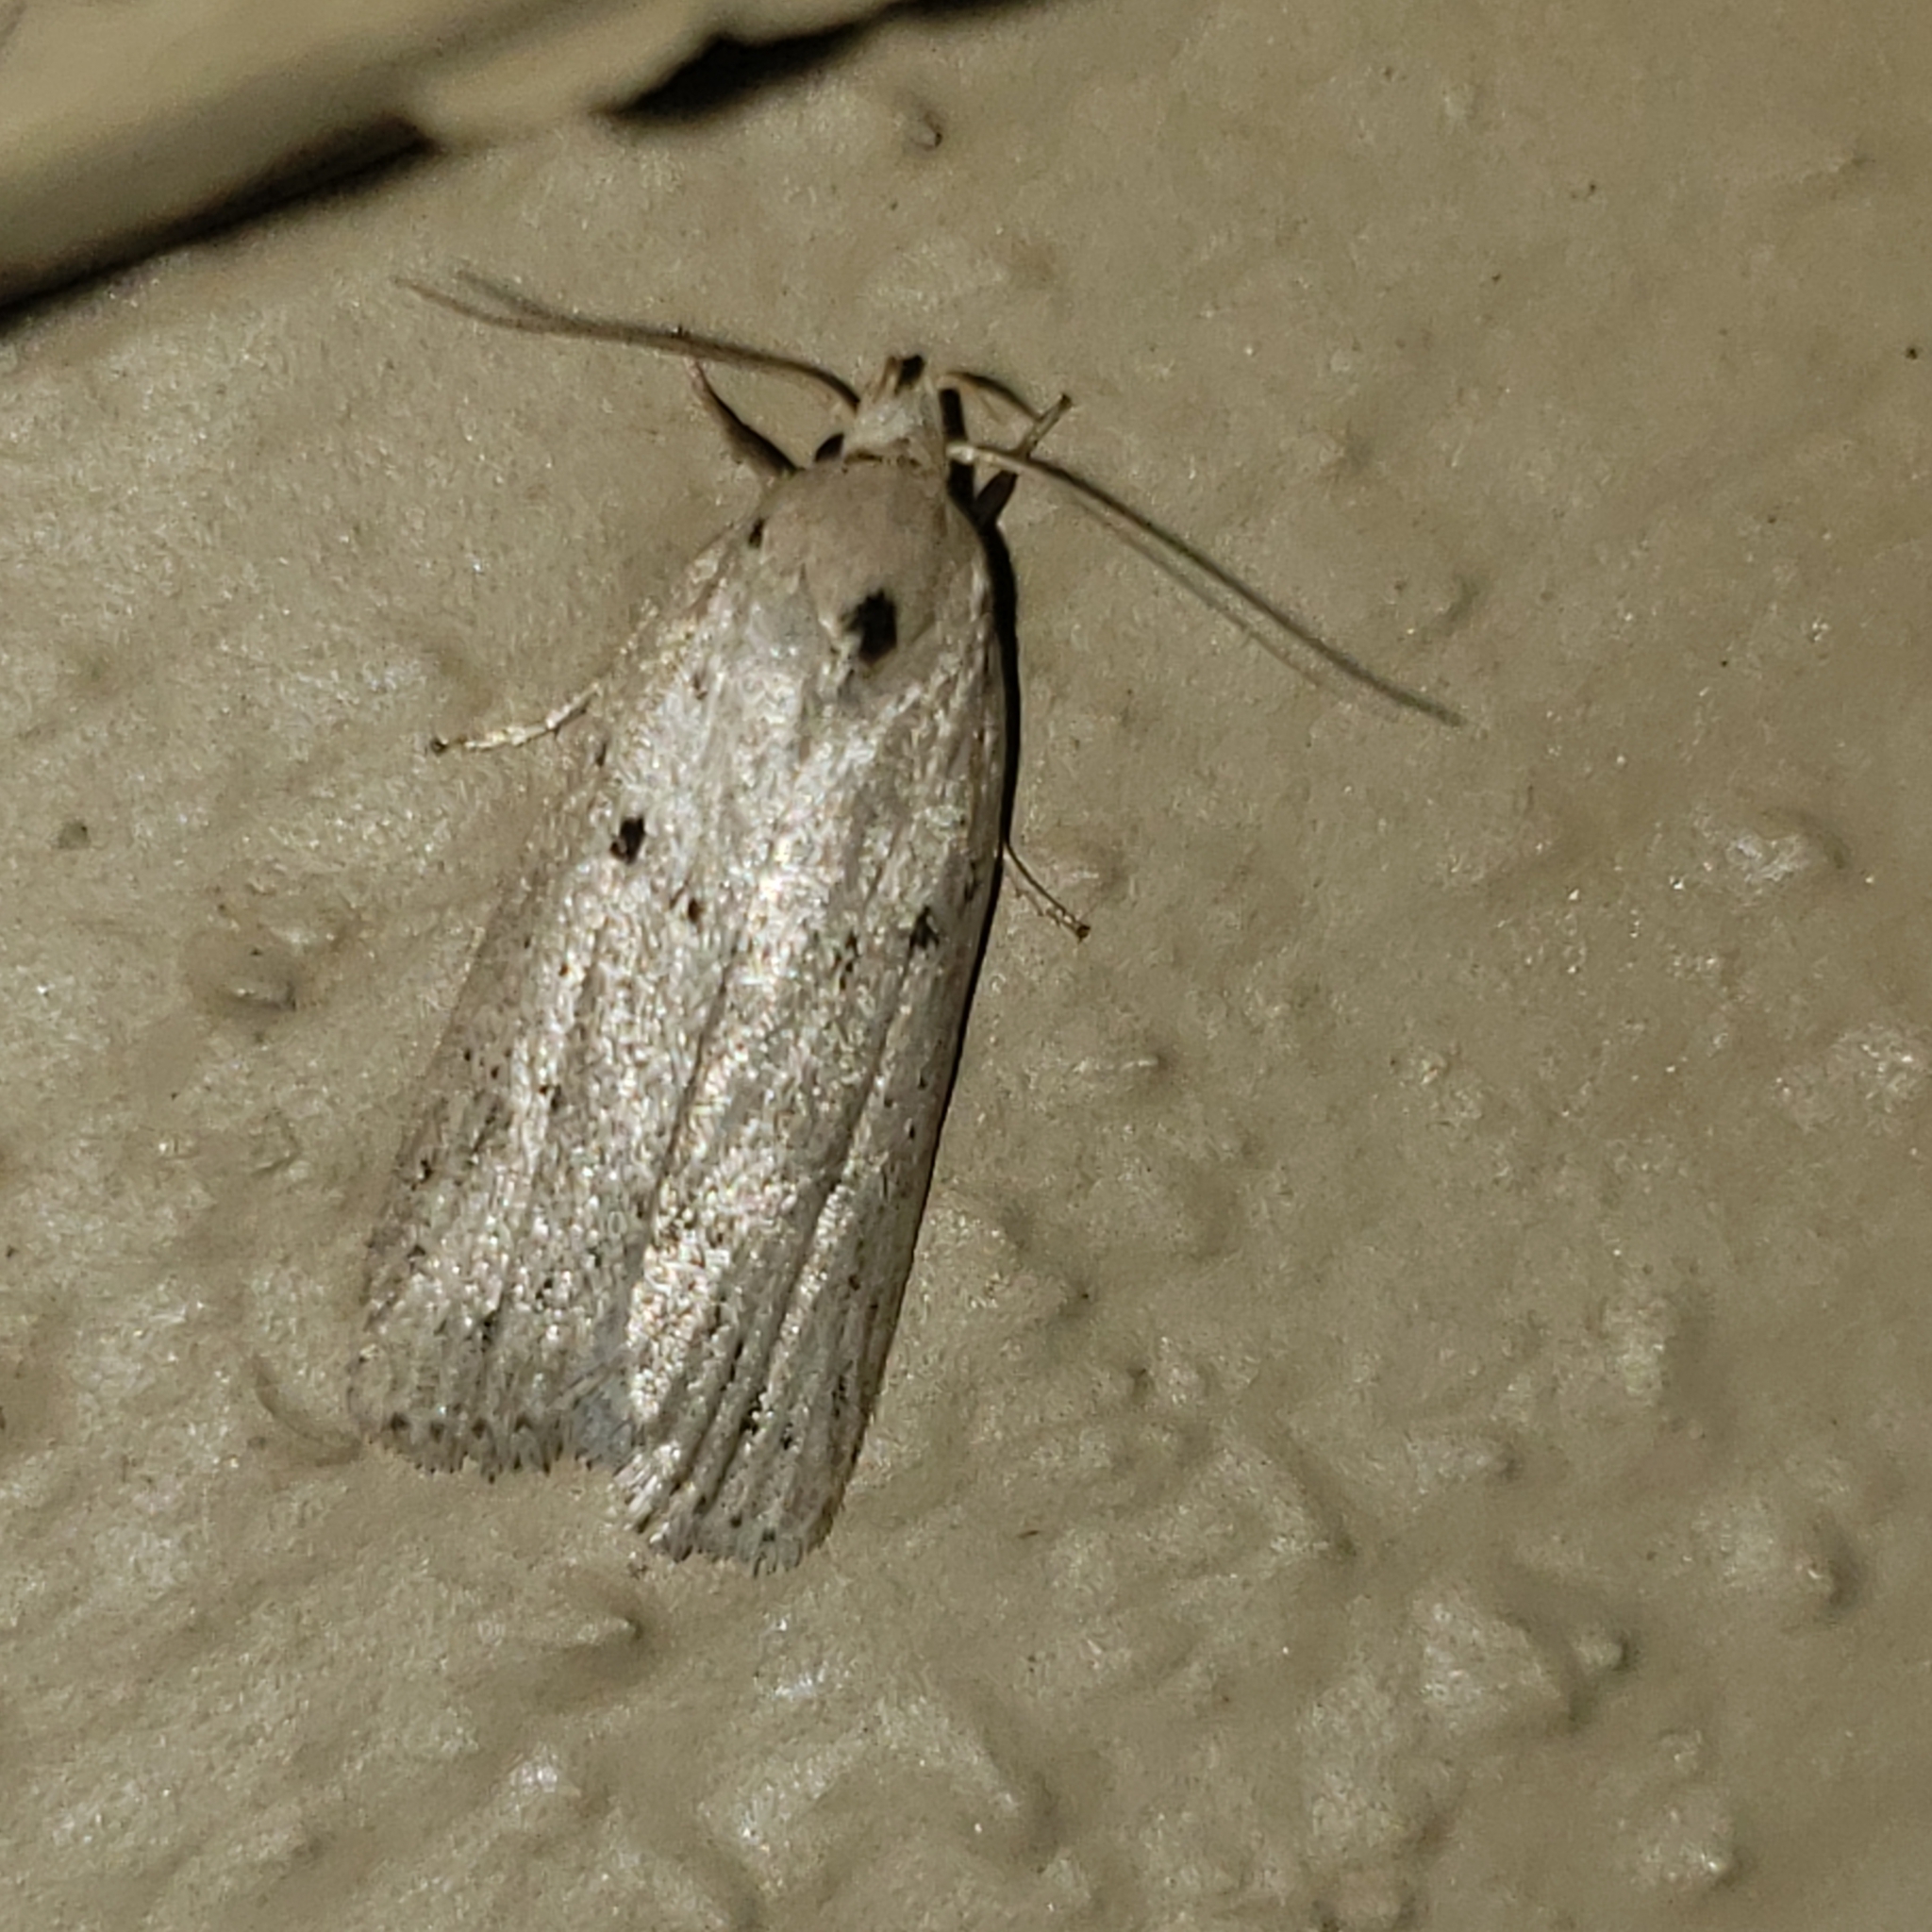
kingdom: Animalia
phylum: Arthropoda
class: Insecta
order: Lepidoptera
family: Peleopodidae
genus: Scythropiodes
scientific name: Scythropiodes issikii
